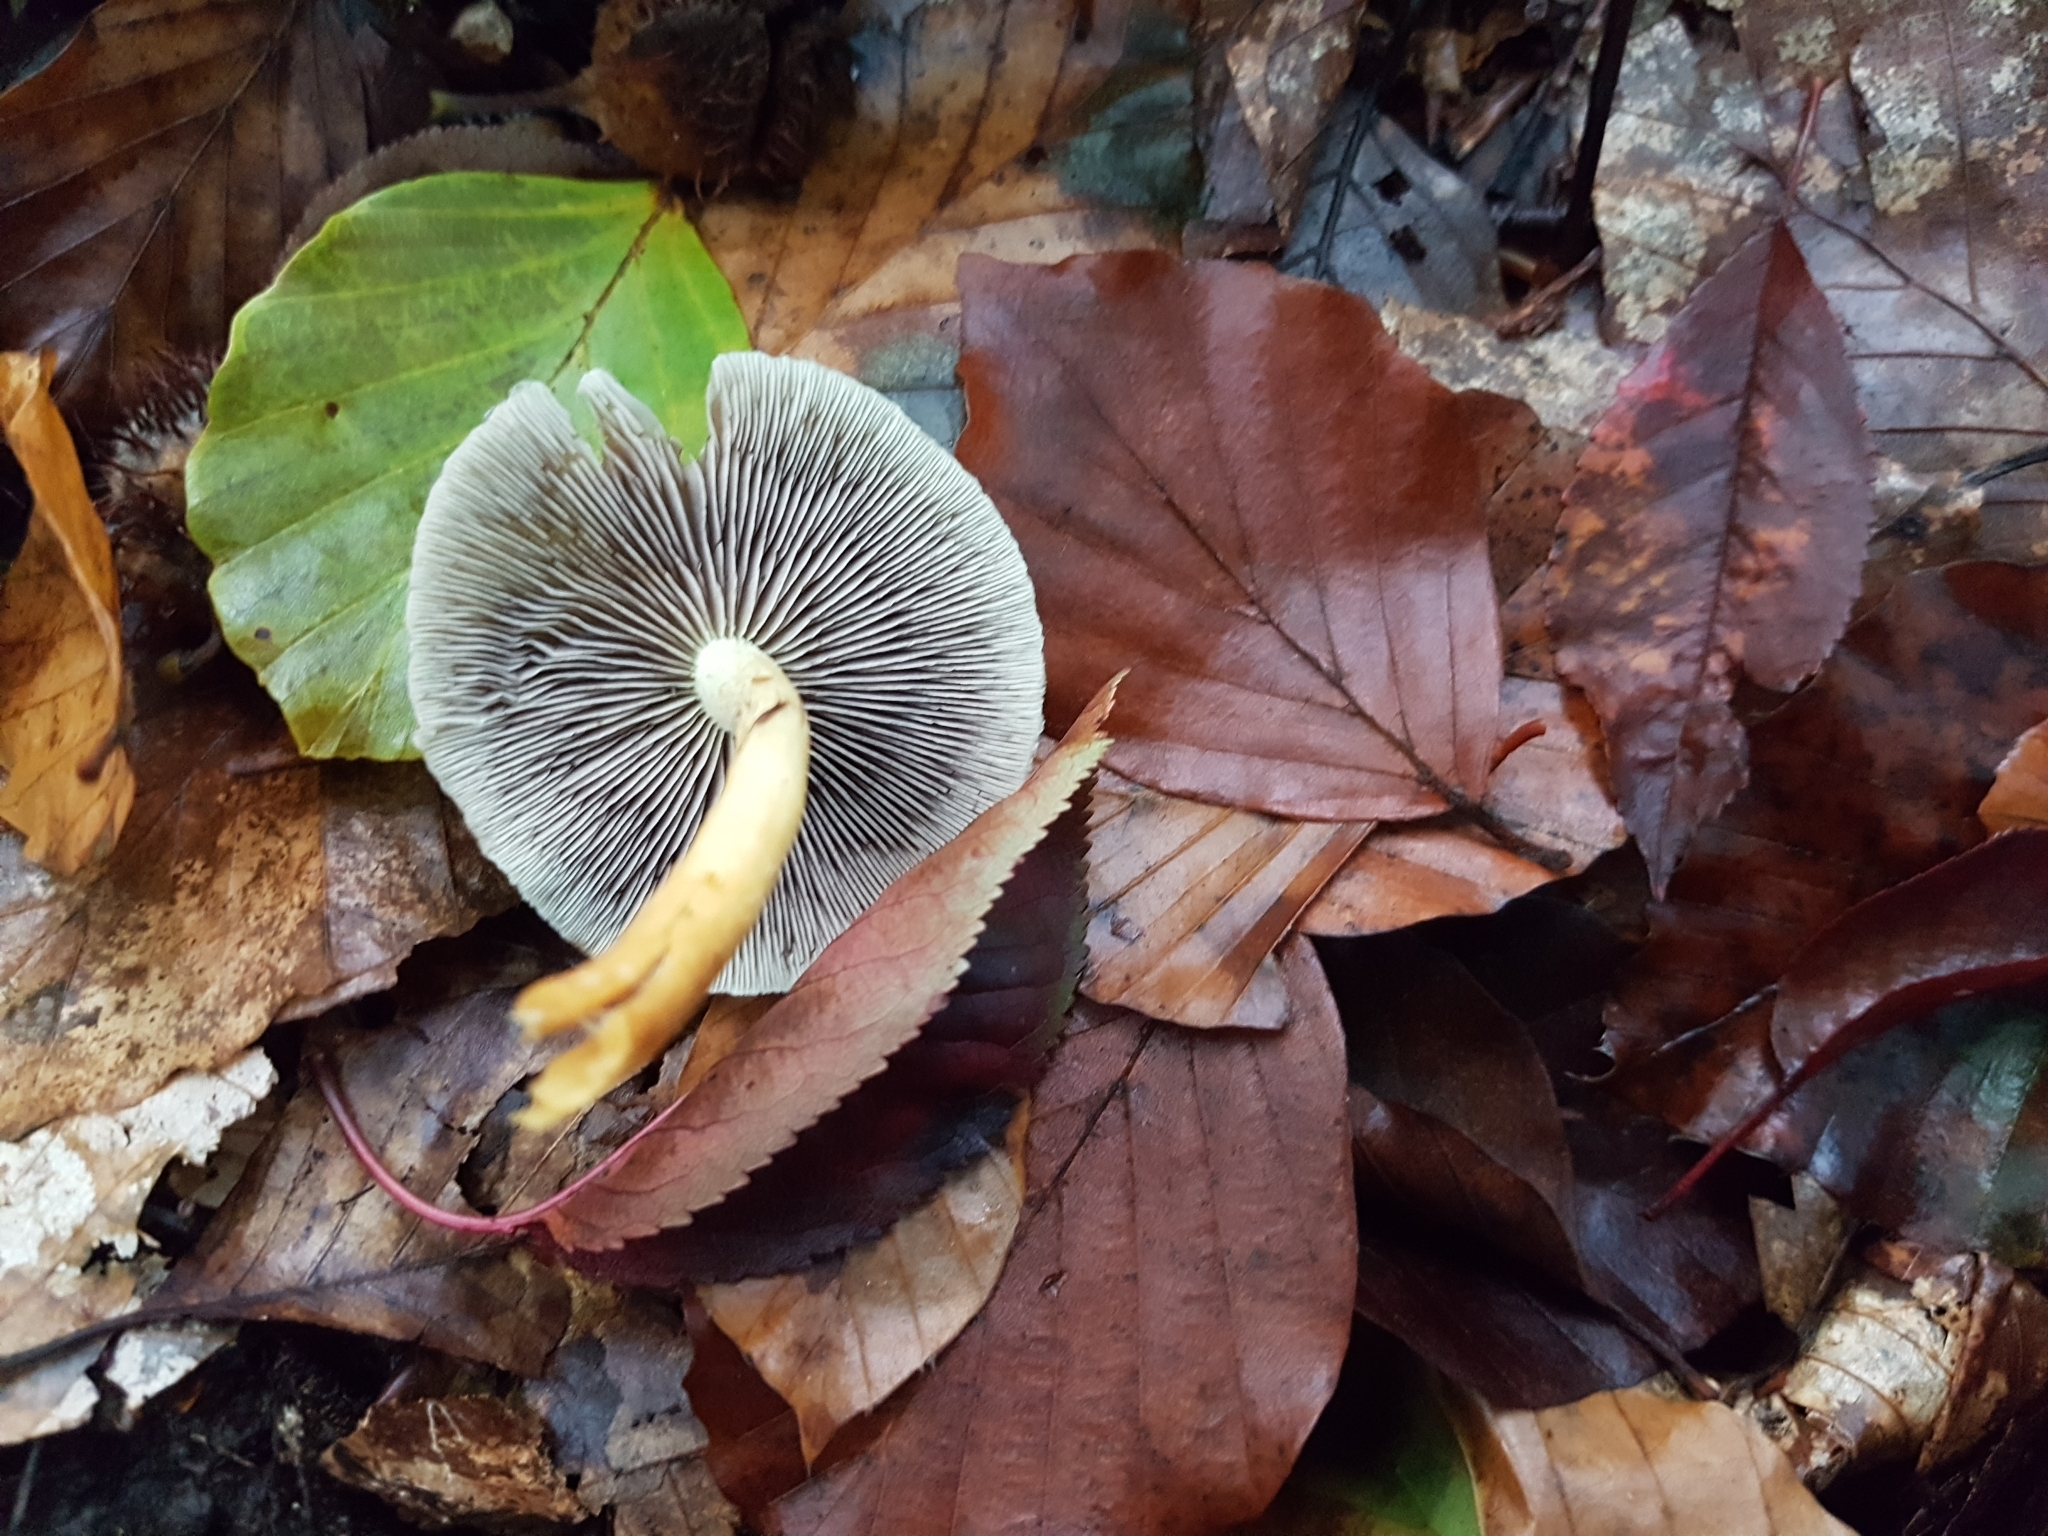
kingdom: Fungi
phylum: Basidiomycota
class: Agaricomycetes
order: Agaricales
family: Strophariaceae
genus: Hypholoma
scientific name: Hypholoma fasciculare
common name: Sulphur tuft
